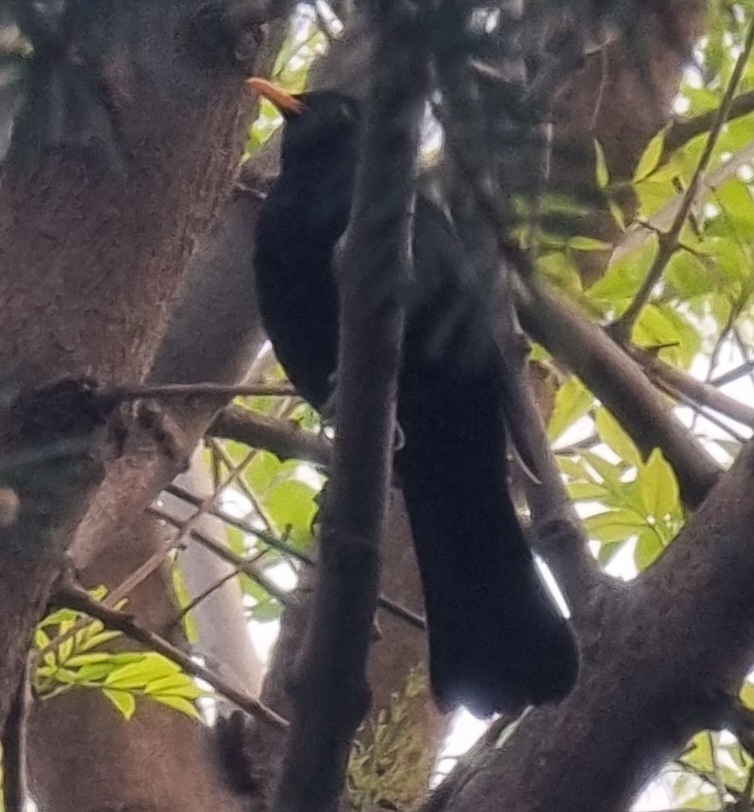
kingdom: Animalia
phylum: Chordata
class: Aves
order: Passeriformes
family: Turdidae
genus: Turdus
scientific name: Turdus merula
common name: Common blackbird
